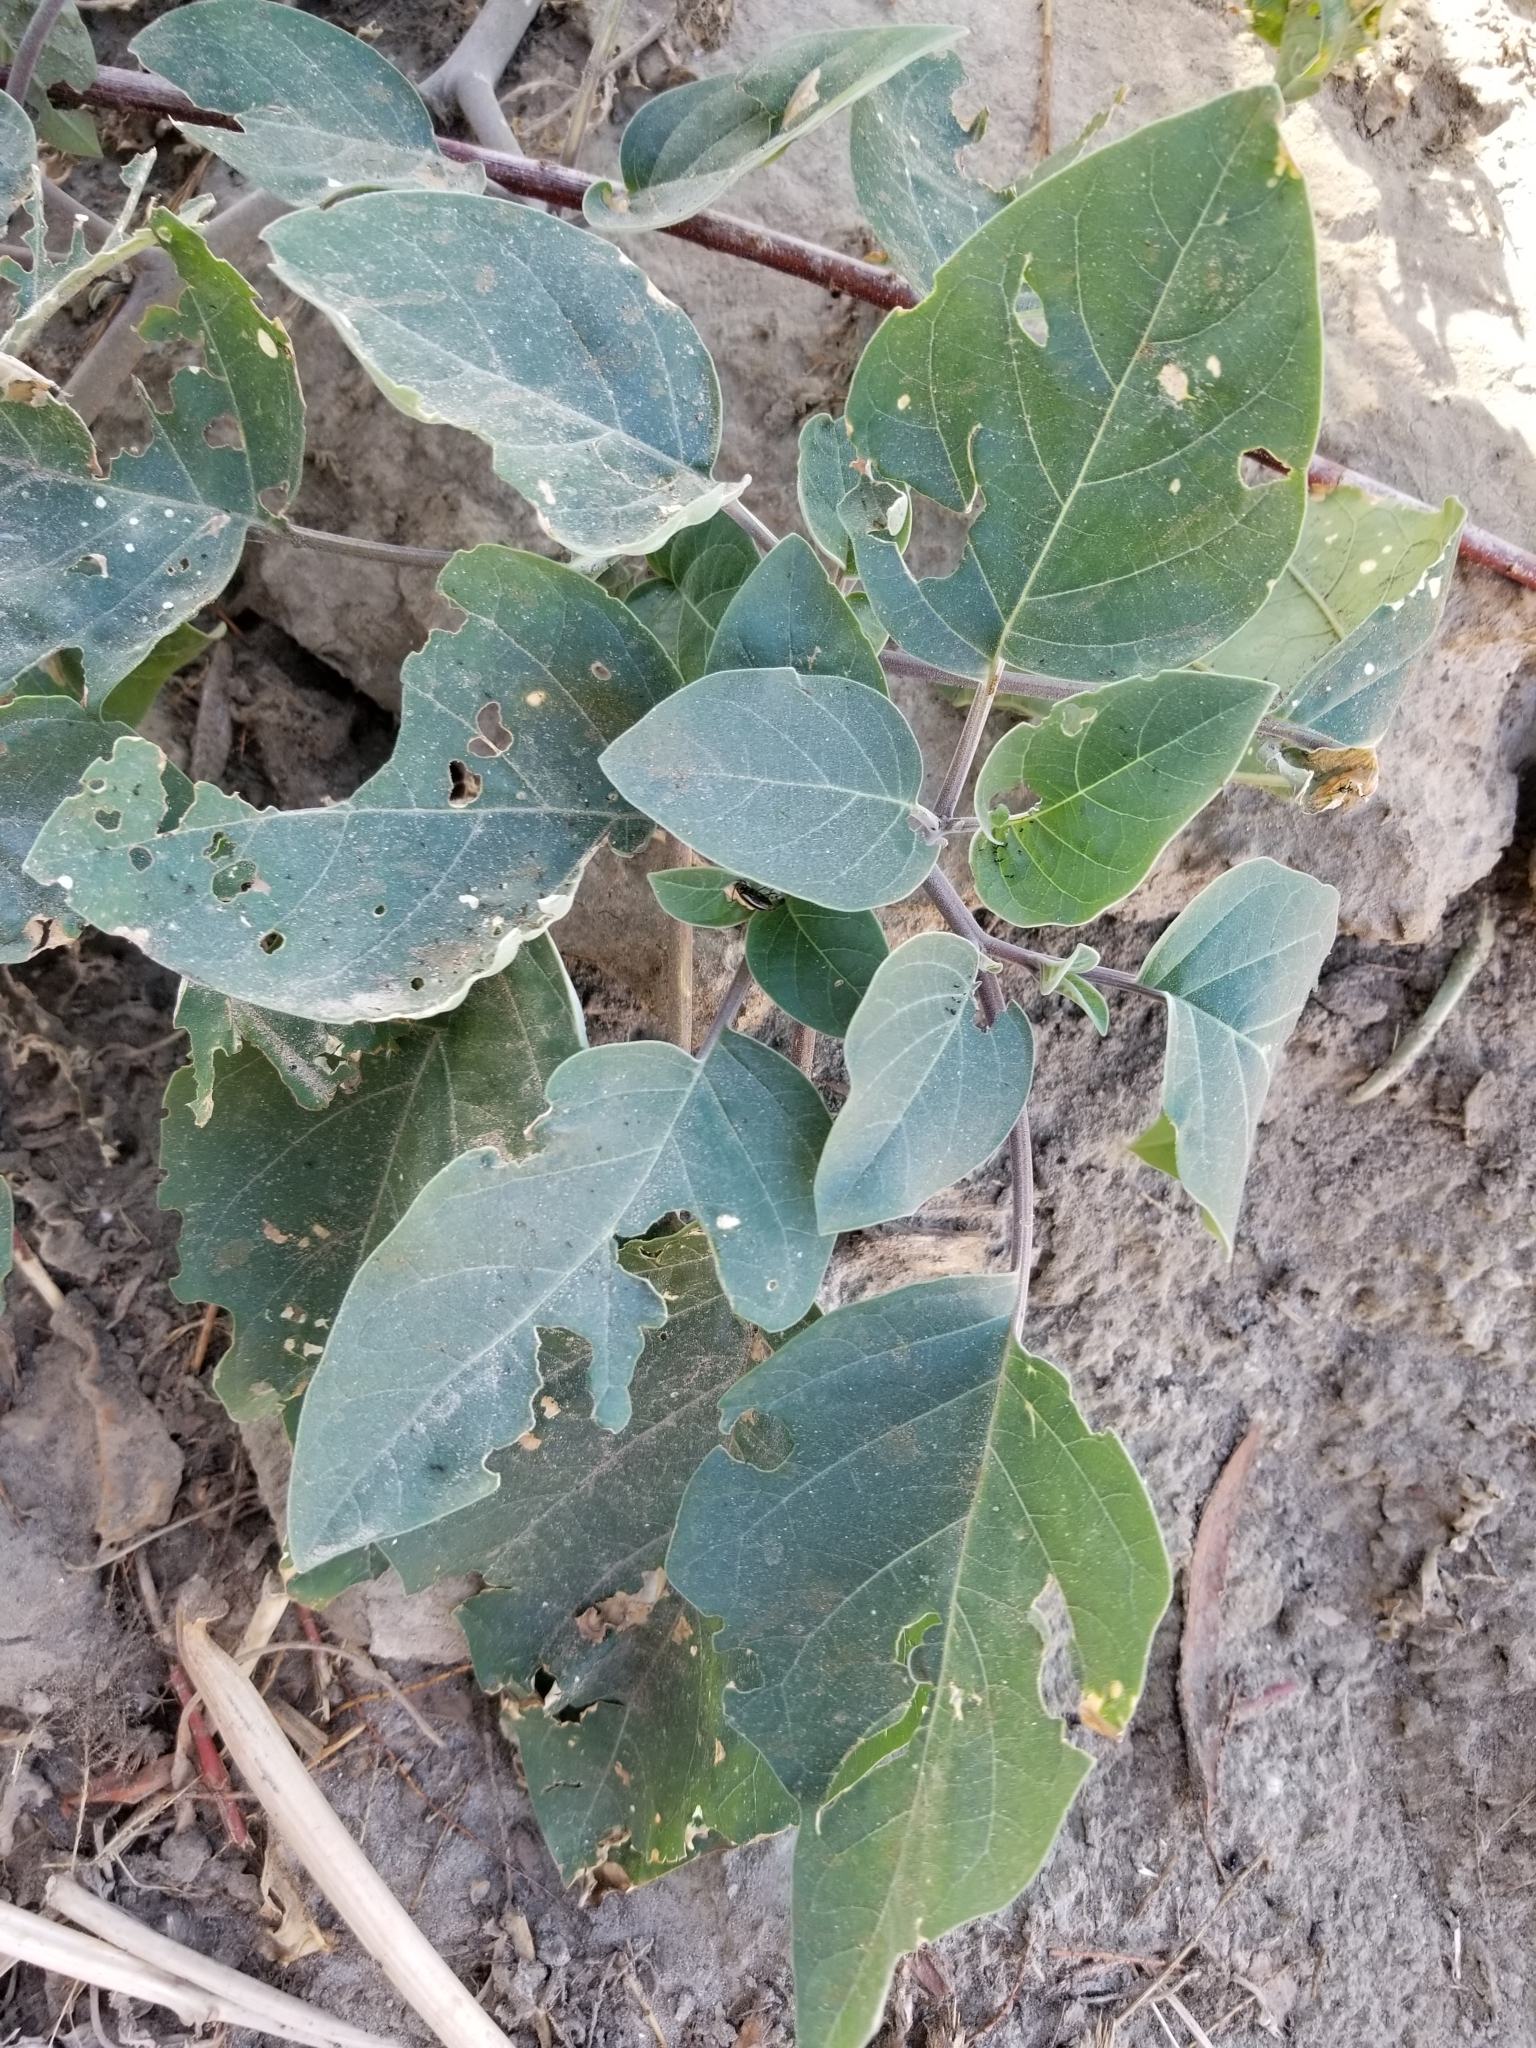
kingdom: Plantae
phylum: Tracheophyta
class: Magnoliopsida
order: Solanales
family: Solanaceae
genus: Datura
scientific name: Datura wrightii
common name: Sacred thorn-apple
